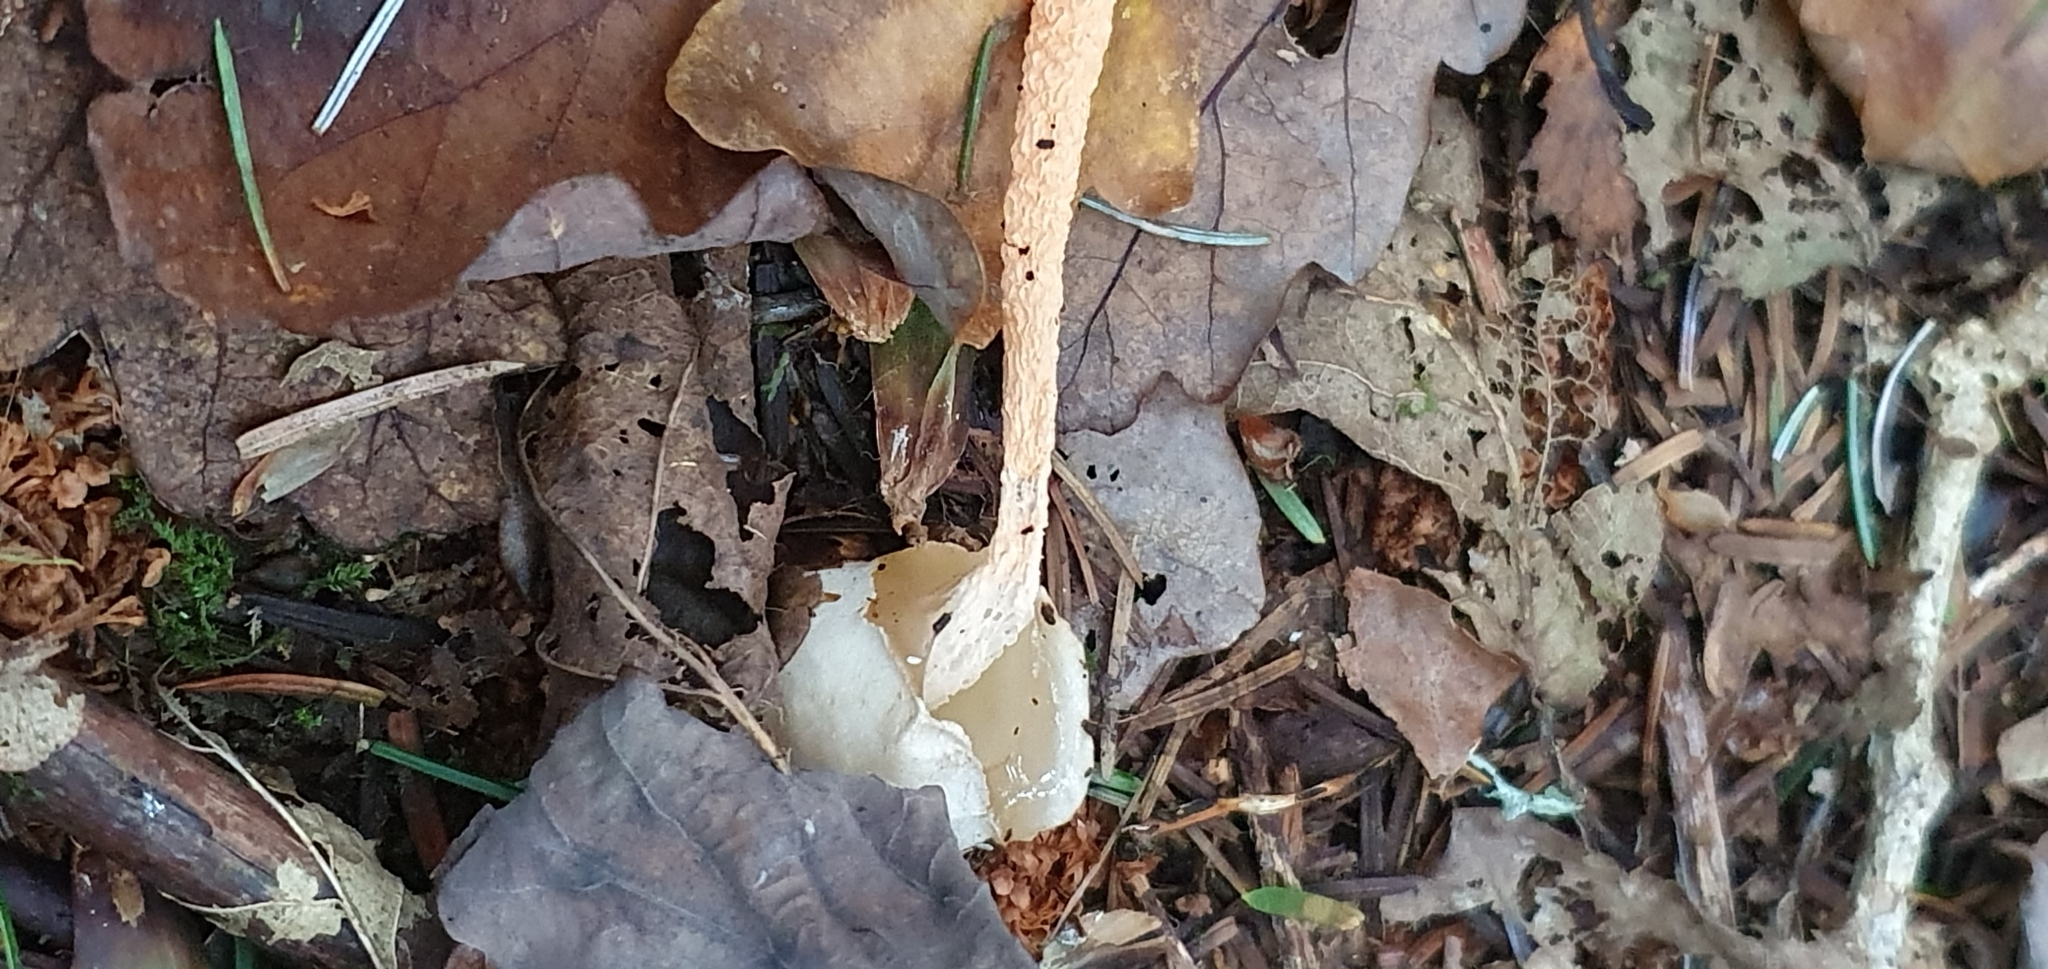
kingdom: Fungi
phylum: Basidiomycota
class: Agaricomycetes
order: Phallales
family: Phallaceae
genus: Mutinus
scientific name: Mutinus caninus
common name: Dog stinkhorn
